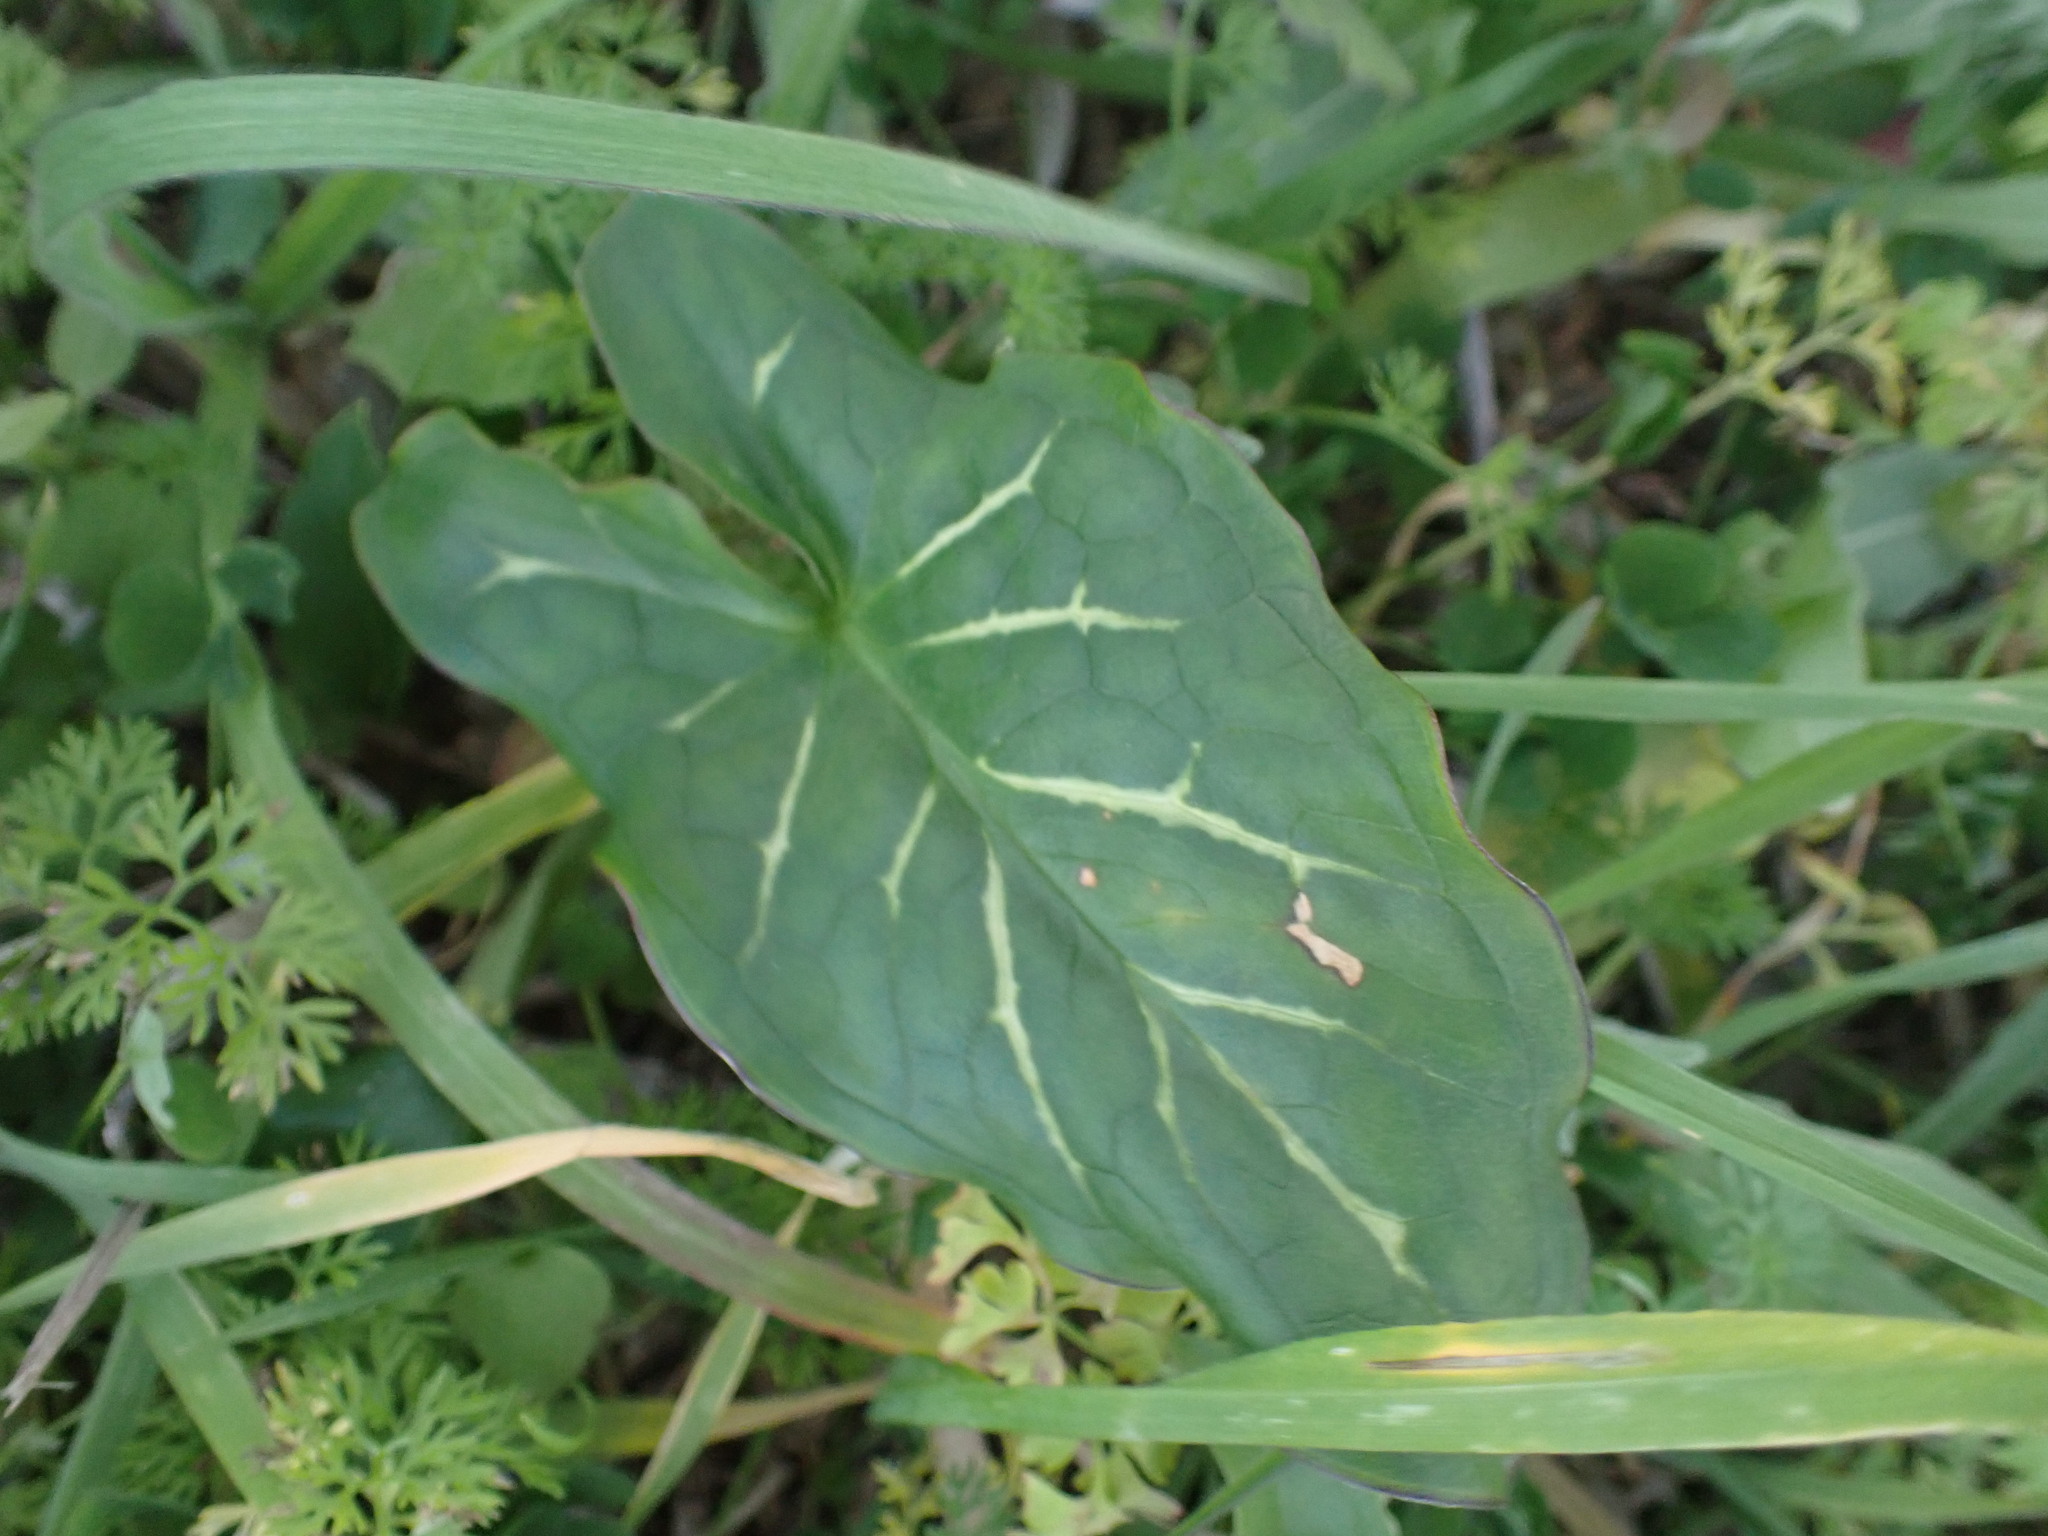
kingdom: Plantae
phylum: Tracheophyta
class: Liliopsida
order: Alismatales
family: Araceae
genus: Arum
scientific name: Arum italicum
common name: Italian lords-and-ladies
